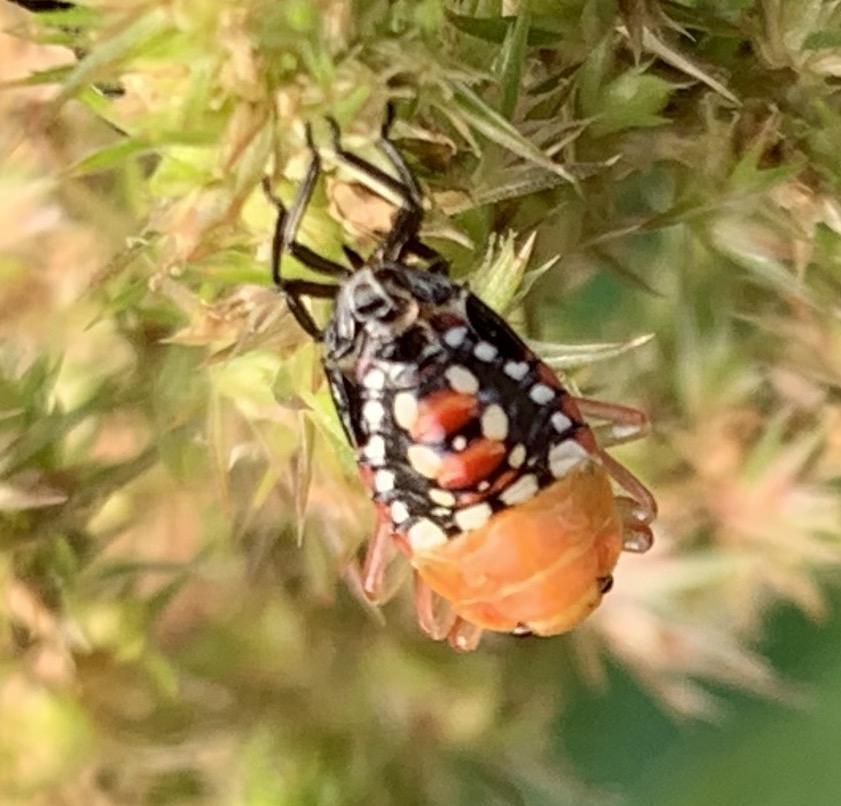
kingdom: Animalia
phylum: Arthropoda
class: Insecta
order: Hemiptera
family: Pentatomidae
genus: Nezara
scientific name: Nezara viridula
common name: Southern green stink bug
